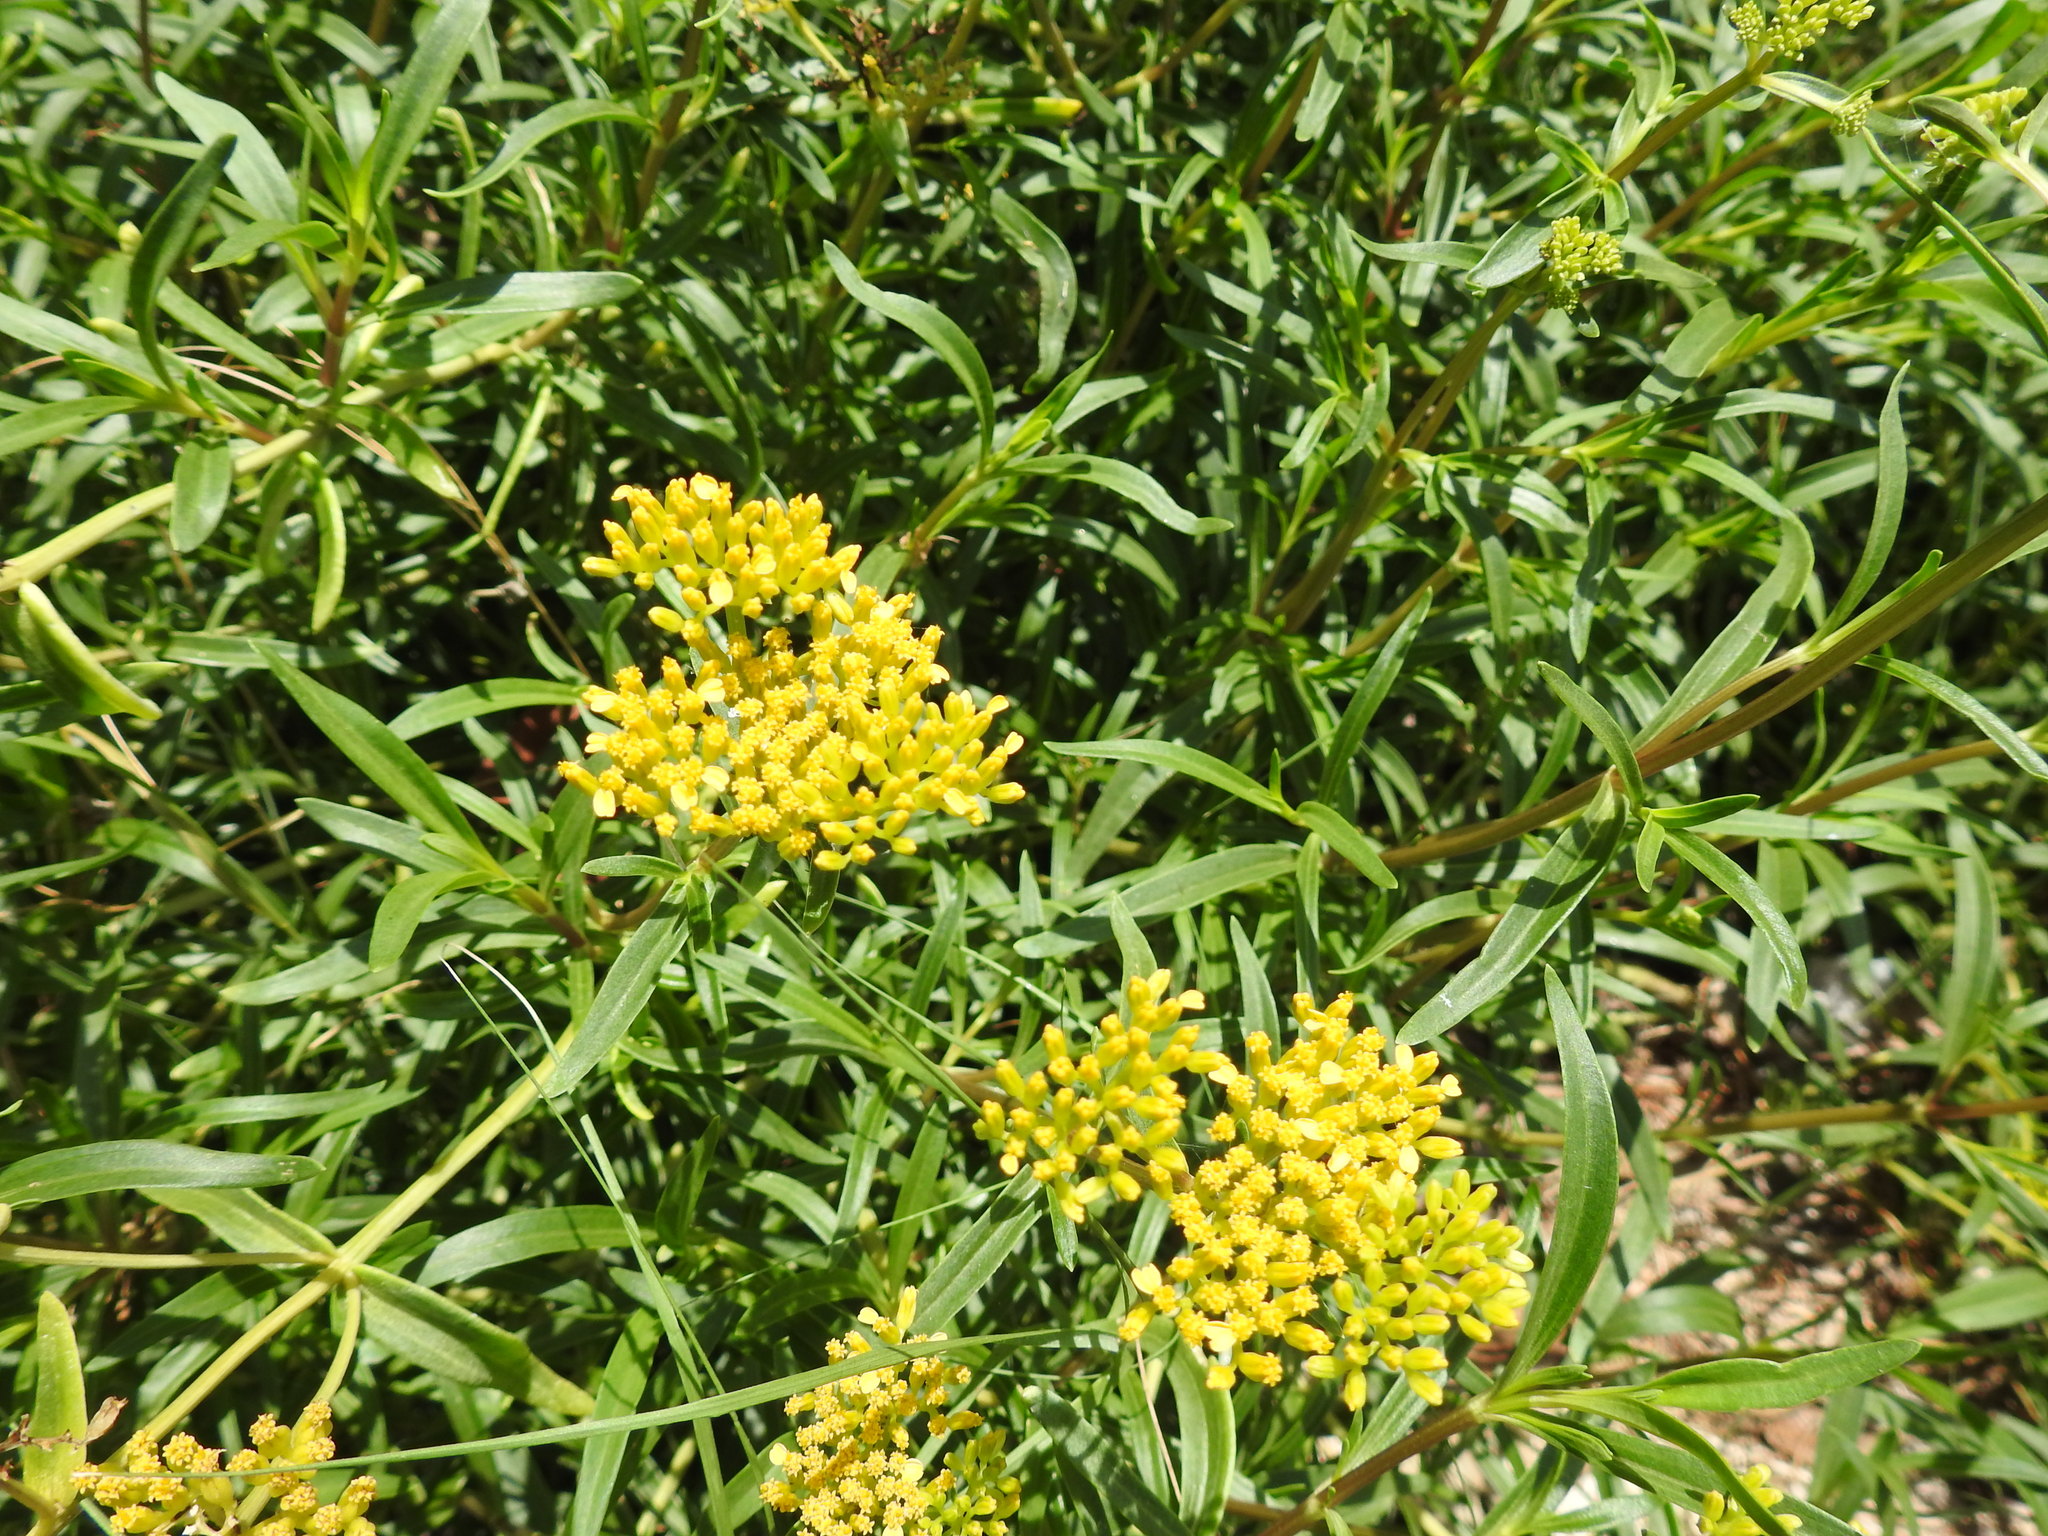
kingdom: Plantae
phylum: Tracheophyta
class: Magnoliopsida
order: Asterales
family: Asteraceae
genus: Flaveria
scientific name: Flaveria linearis
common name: Yellowtop
